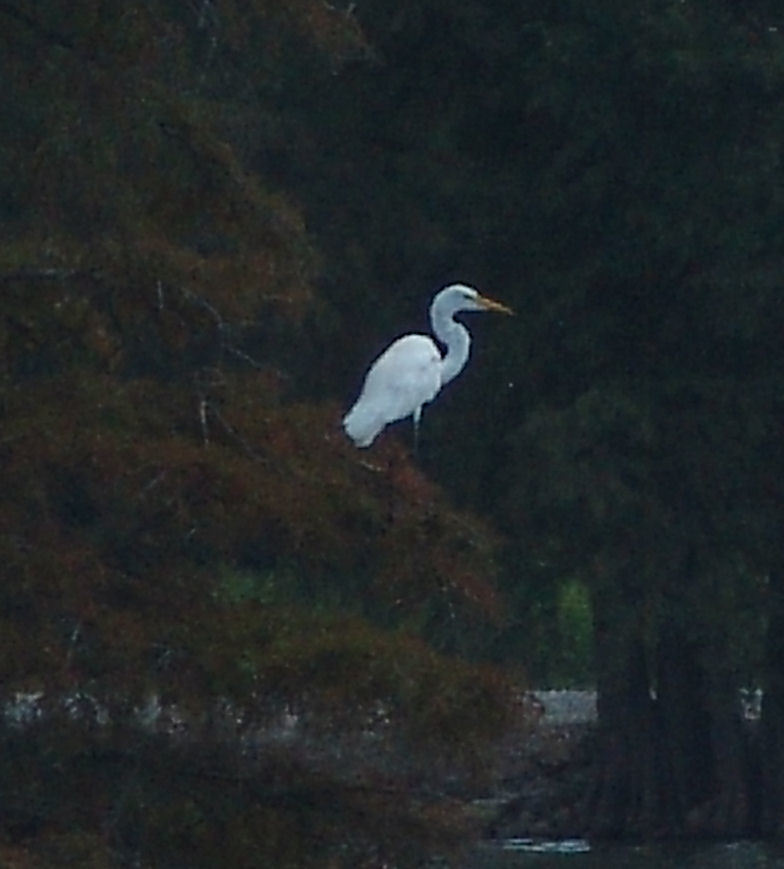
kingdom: Animalia
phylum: Chordata
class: Aves
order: Pelecaniformes
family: Ardeidae
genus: Ardea
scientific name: Ardea alba
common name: Great egret
